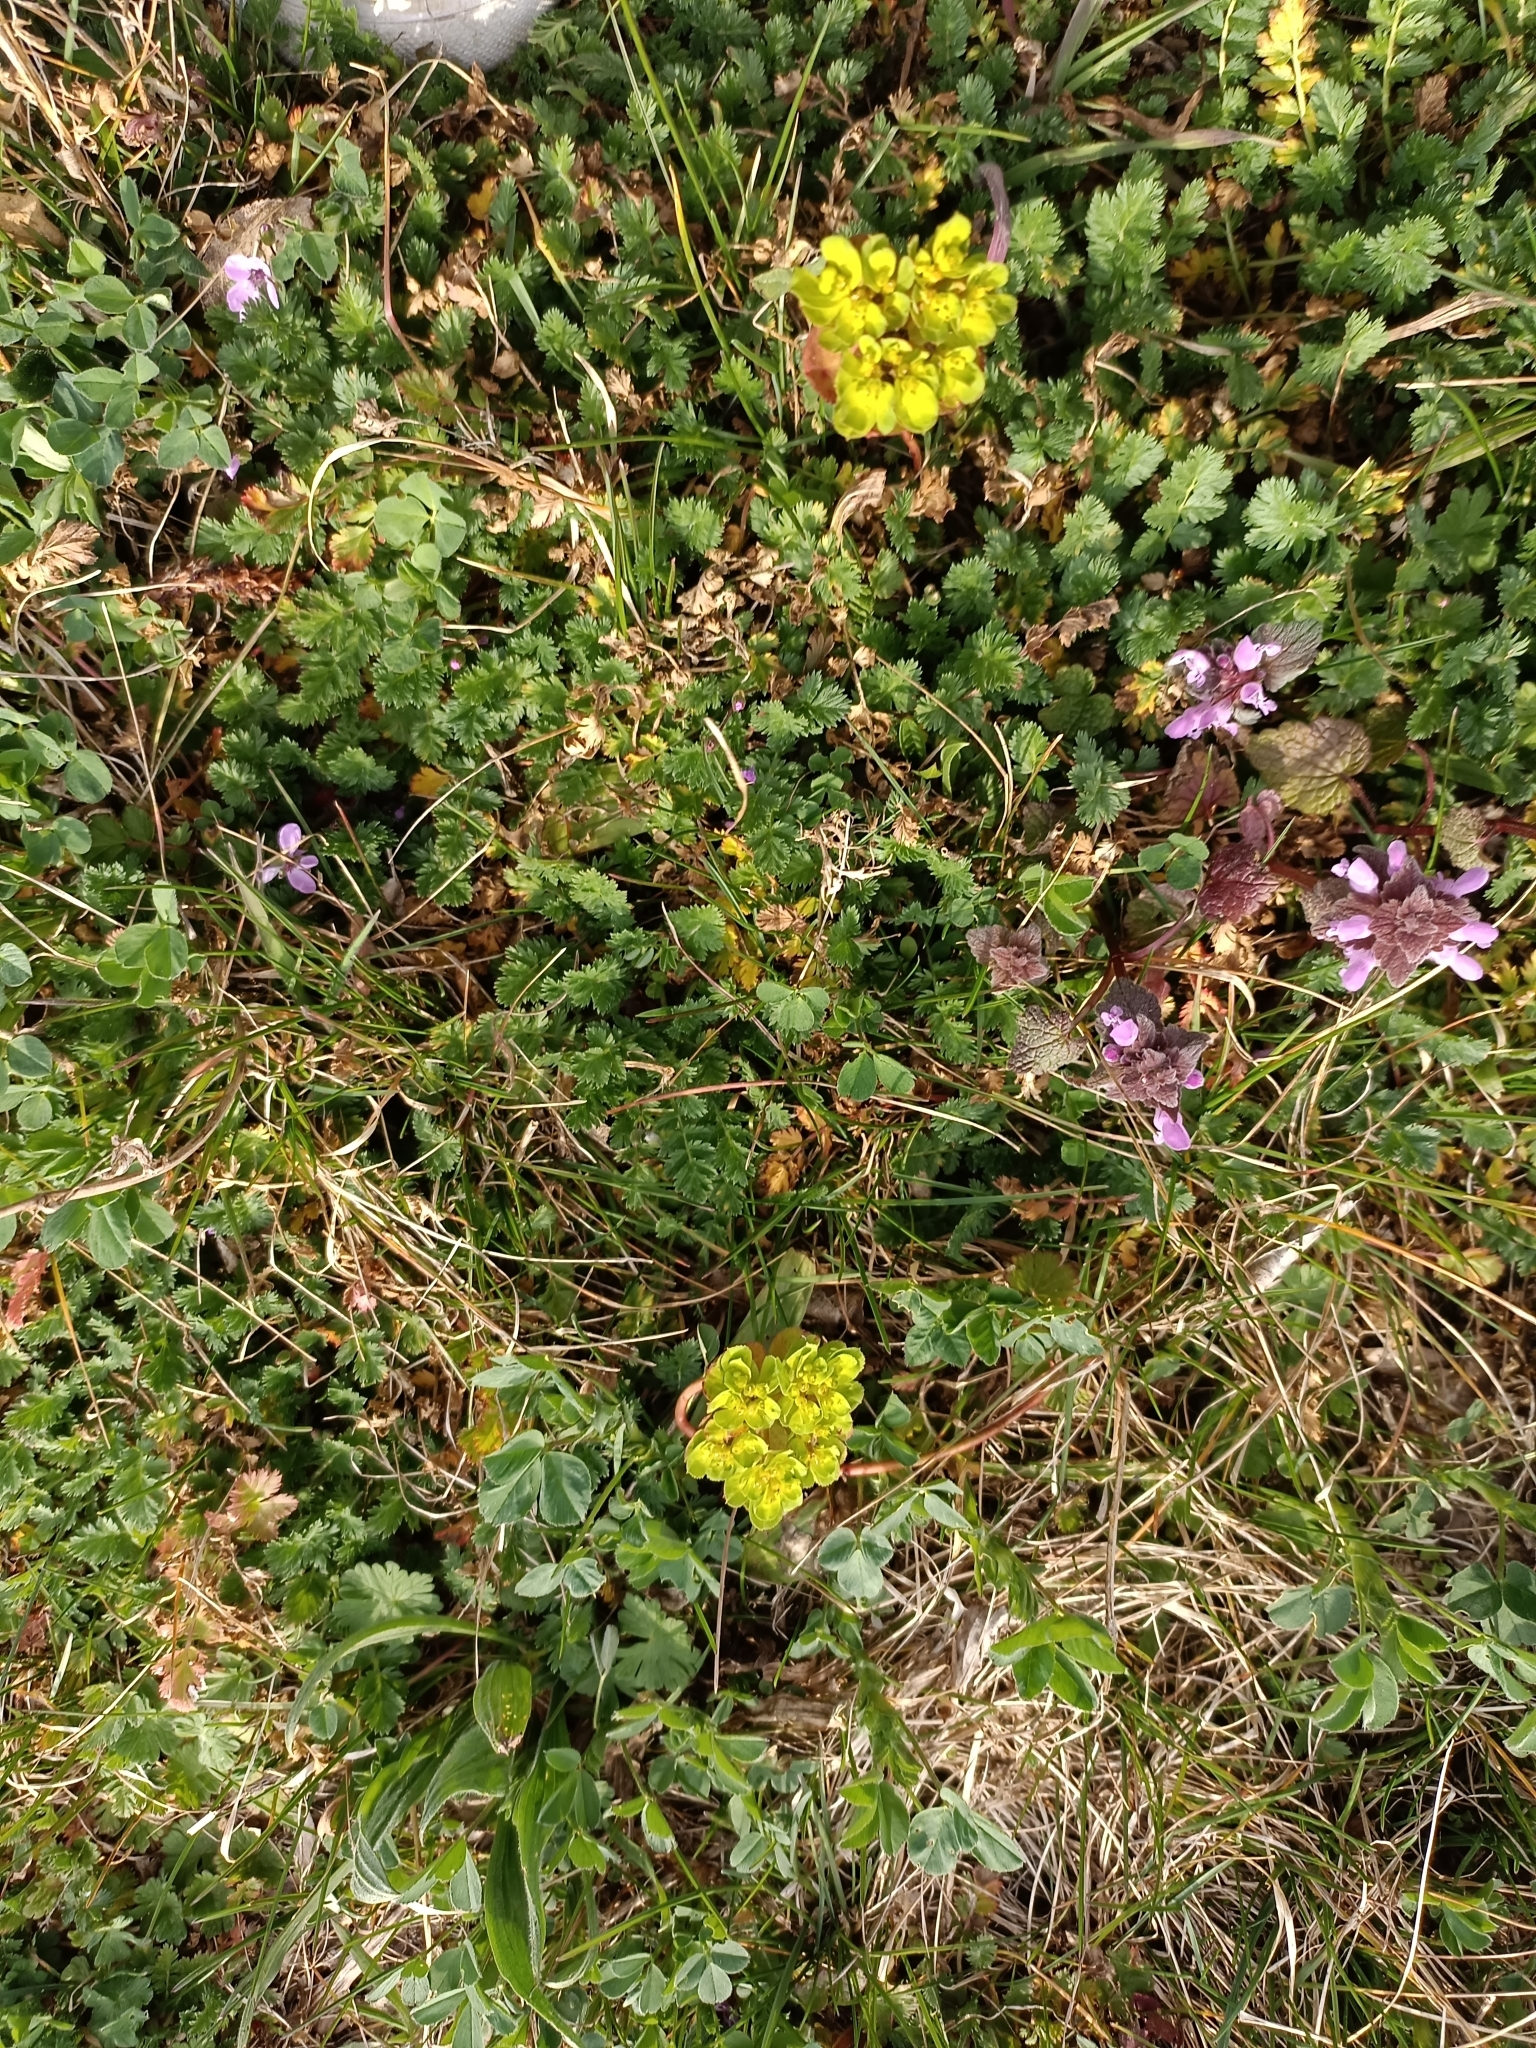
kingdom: Plantae
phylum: Tracheophyta
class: Magnoliopsida
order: Malpighiales
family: Euphorbiaceae
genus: Euphorbia
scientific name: Euphorbia helioscopia
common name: Sun spurge
